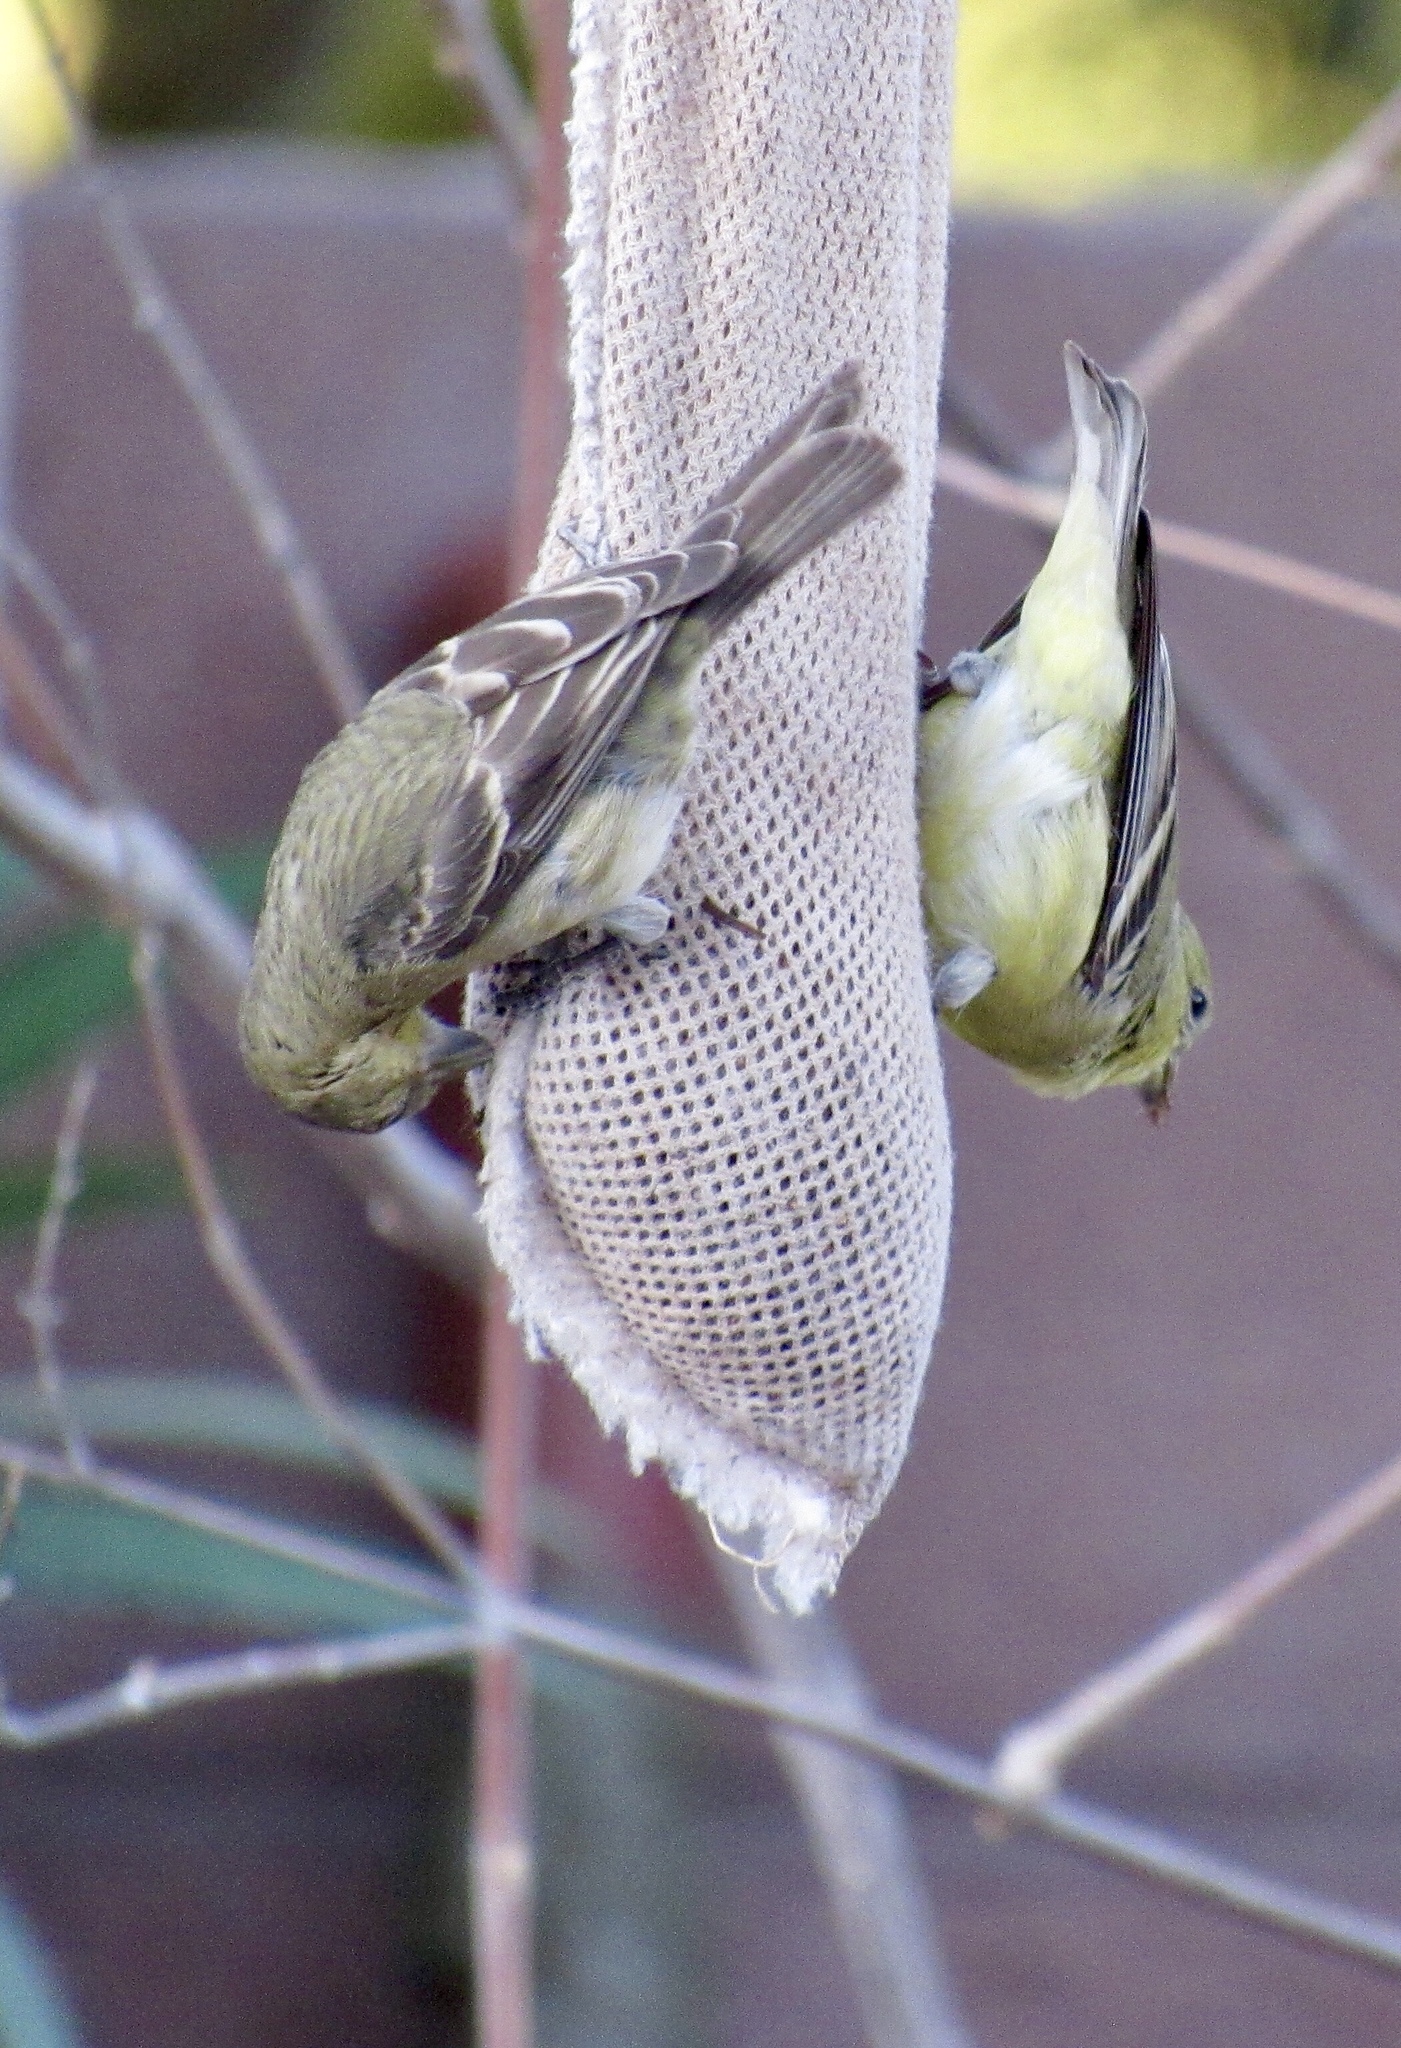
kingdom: Animalia
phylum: Chordata
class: Aves
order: Passeriformes
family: Fringillidae
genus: Spinus
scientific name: Spinus psaltria
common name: Lesser goldfinch
